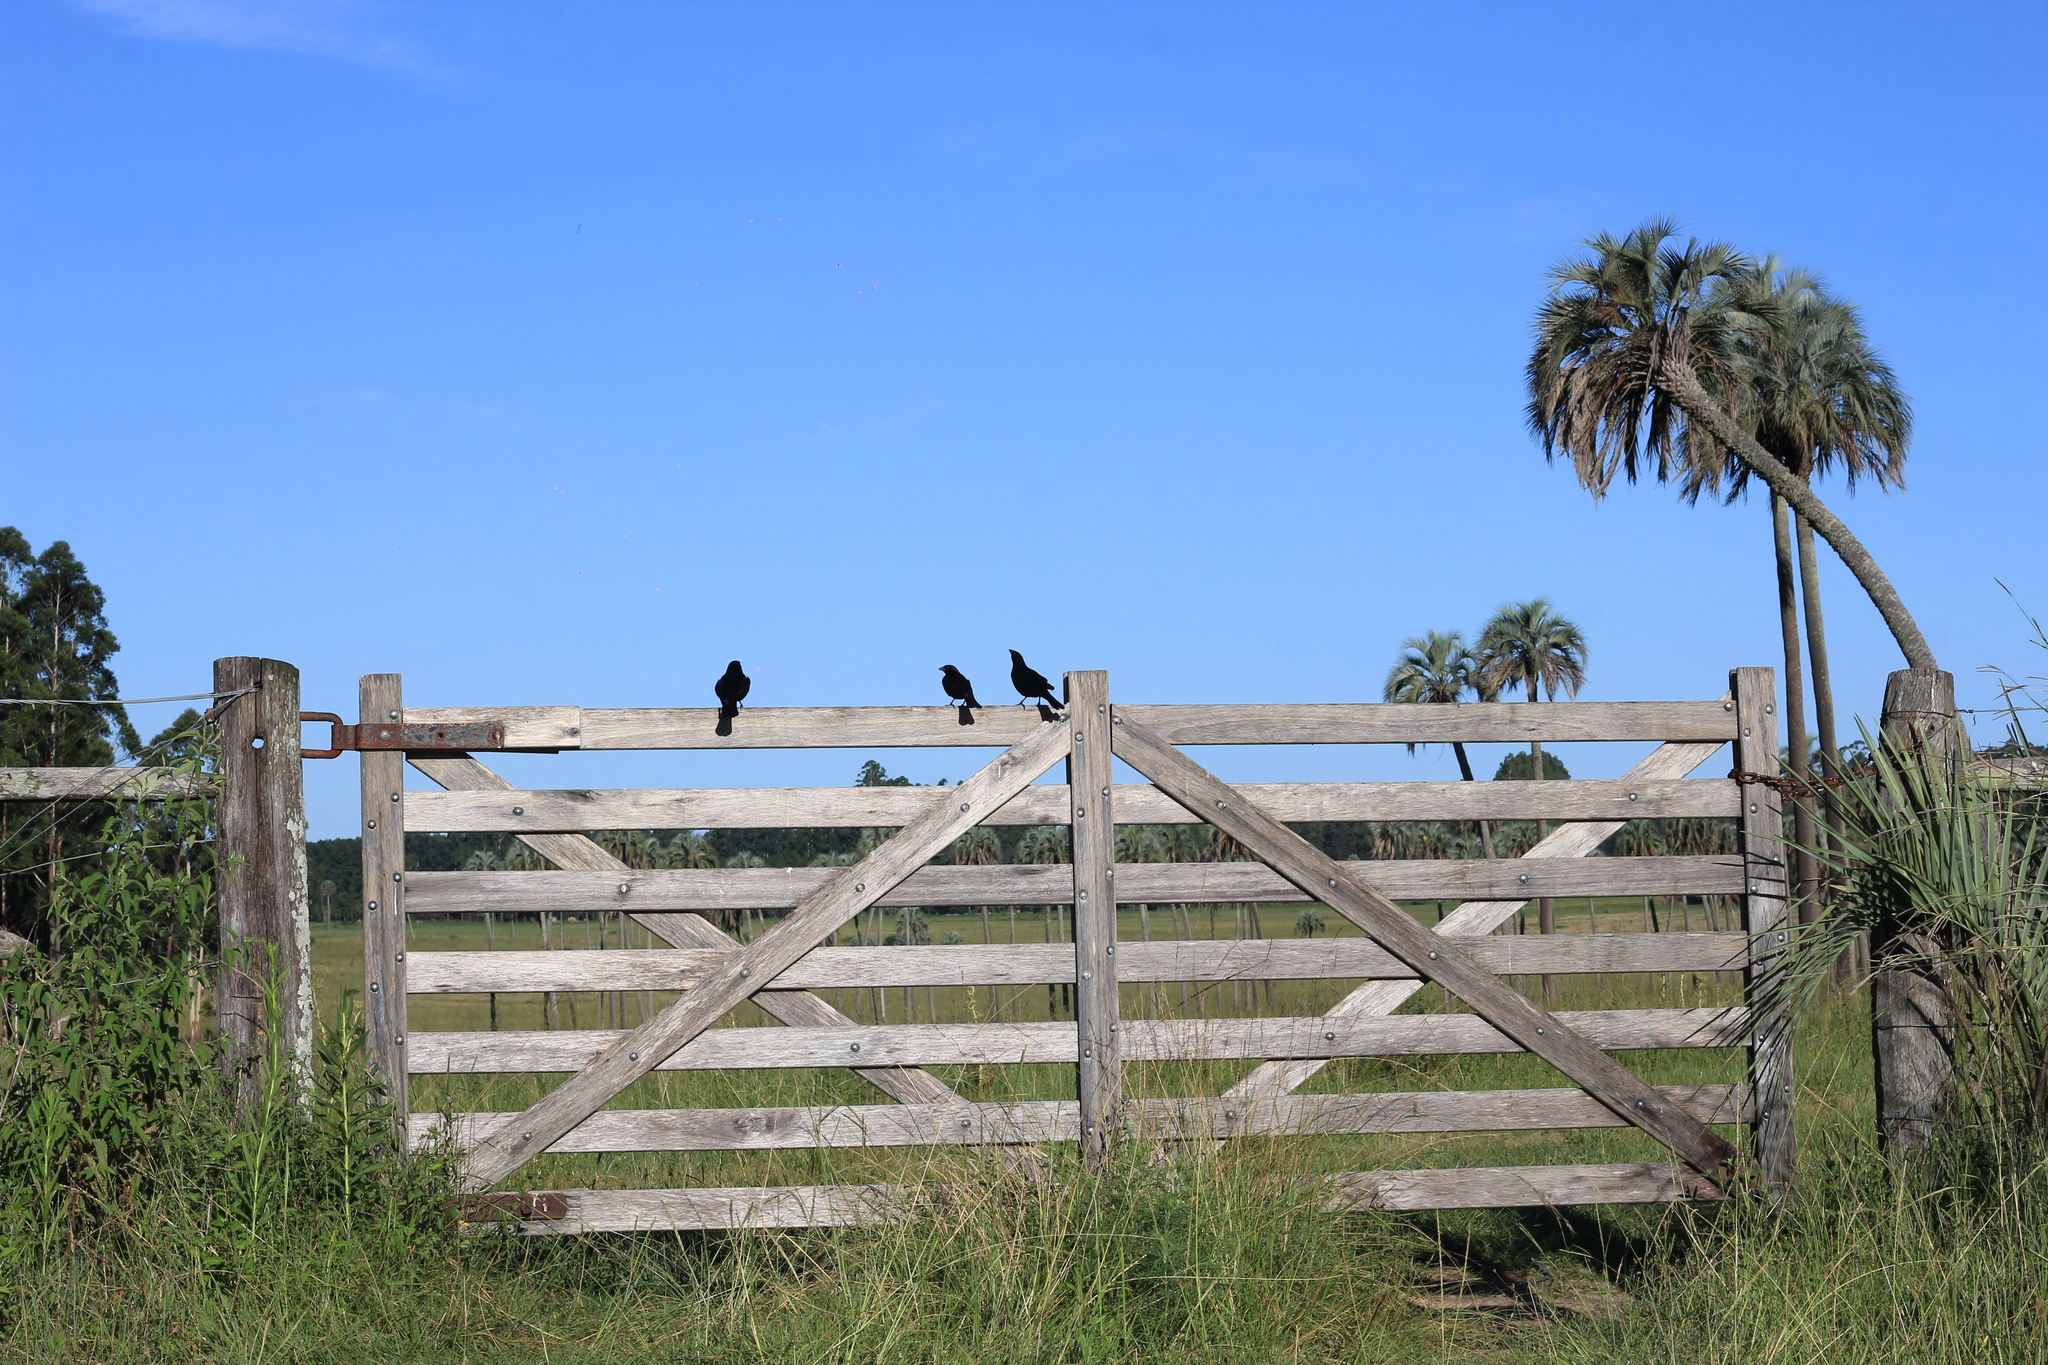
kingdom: Animalia
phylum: Chordata
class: Aves
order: Passeriformes
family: Icteridae
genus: Molothrus
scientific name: Molothrus rufoaxillaris
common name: Screaming cowbird
